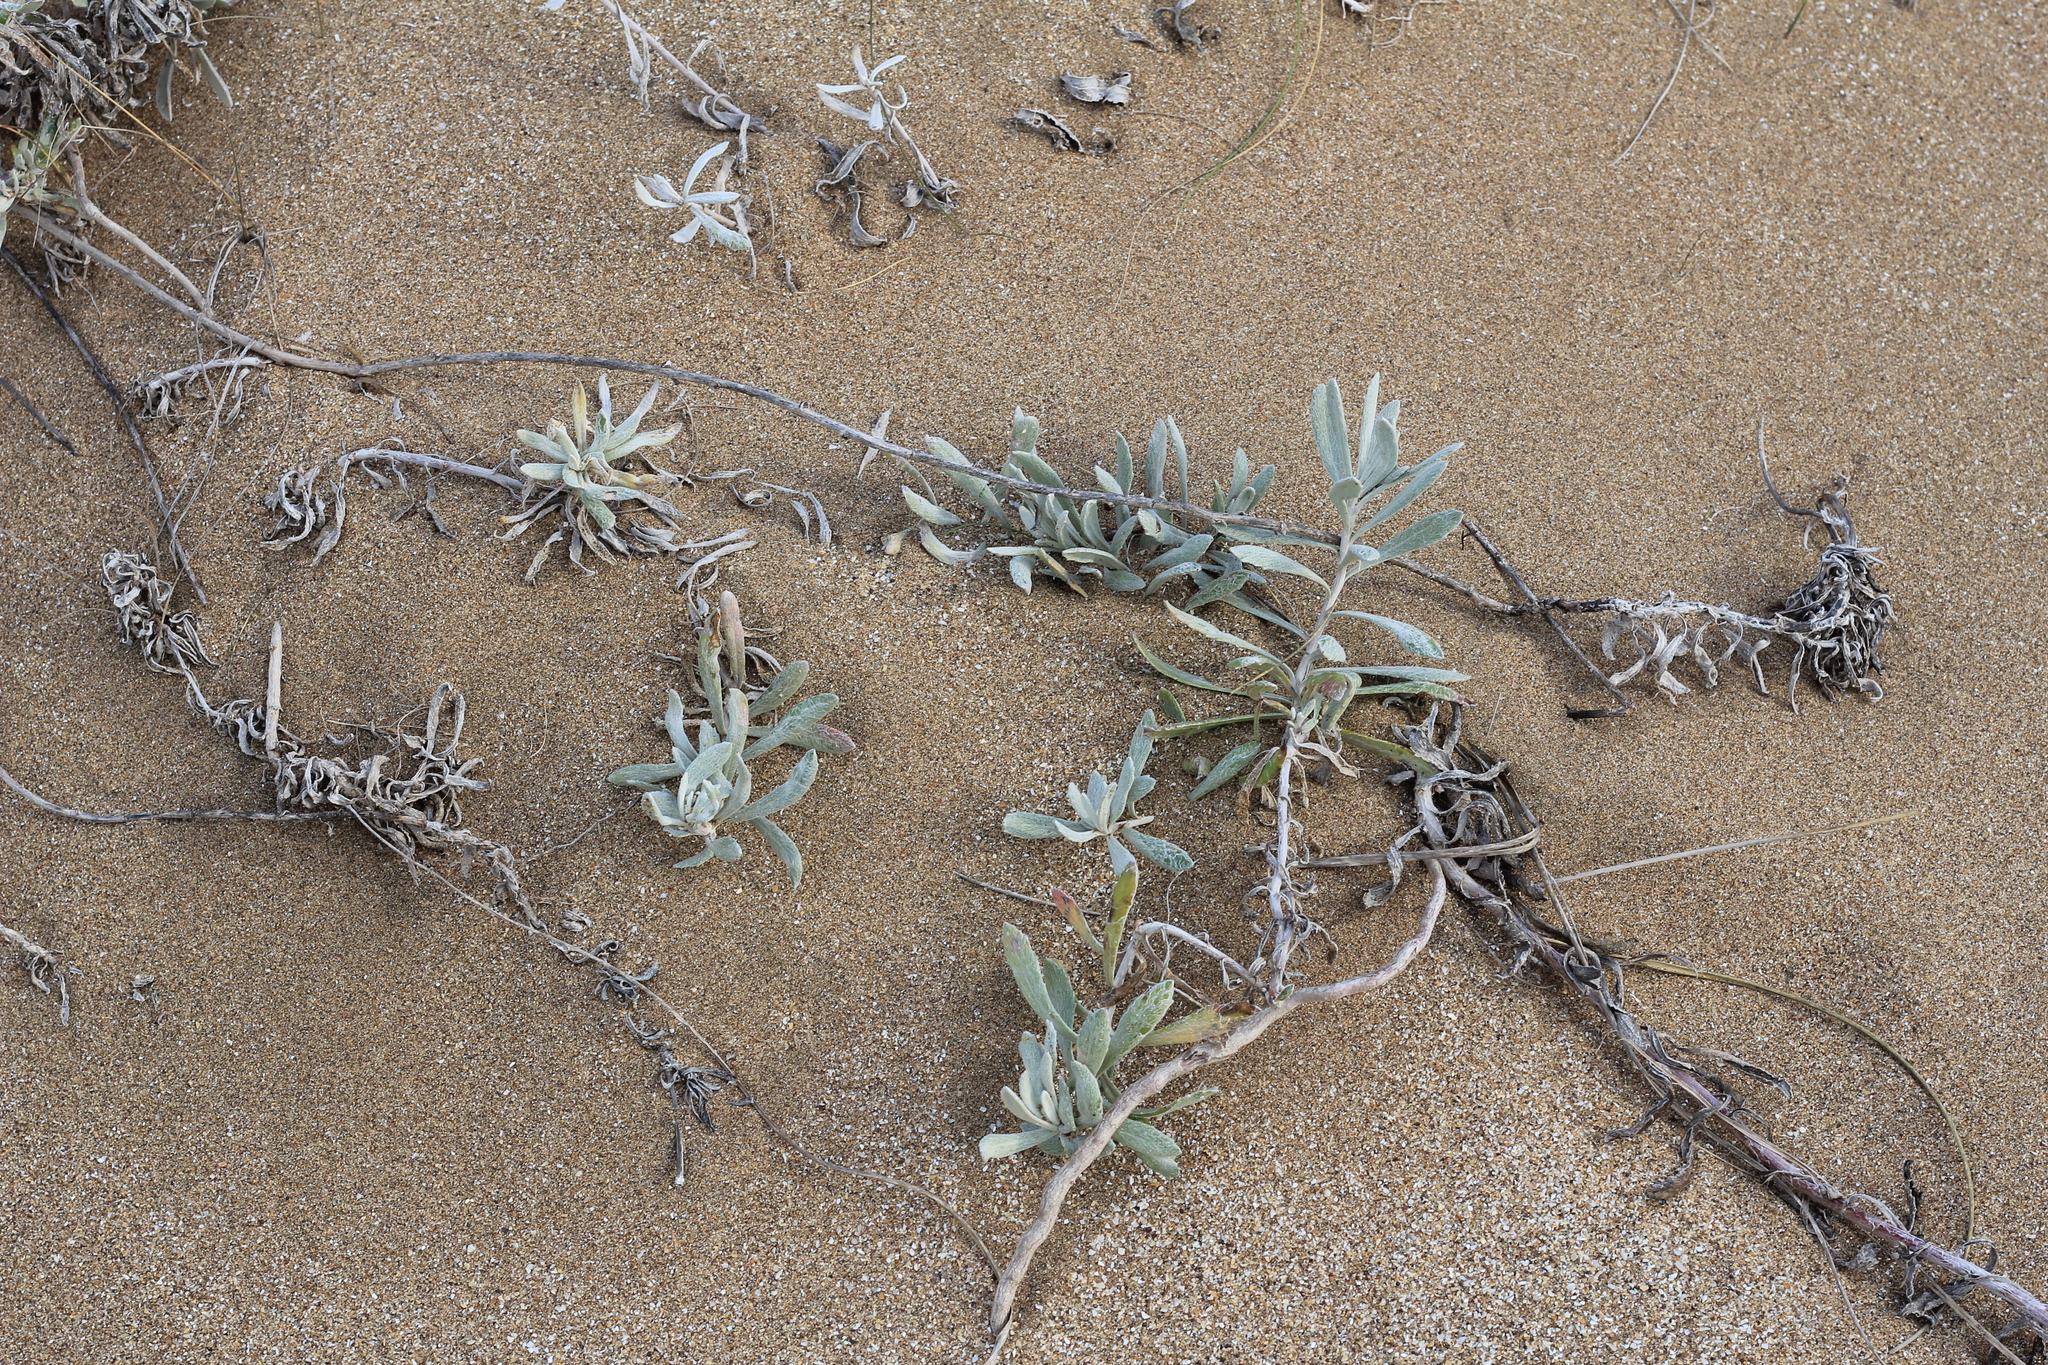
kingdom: Plantae
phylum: Tracheophyta
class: Magnoliopsida
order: Asterales
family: Asteraceae
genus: Senecio
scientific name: Senecio crassiflorus
